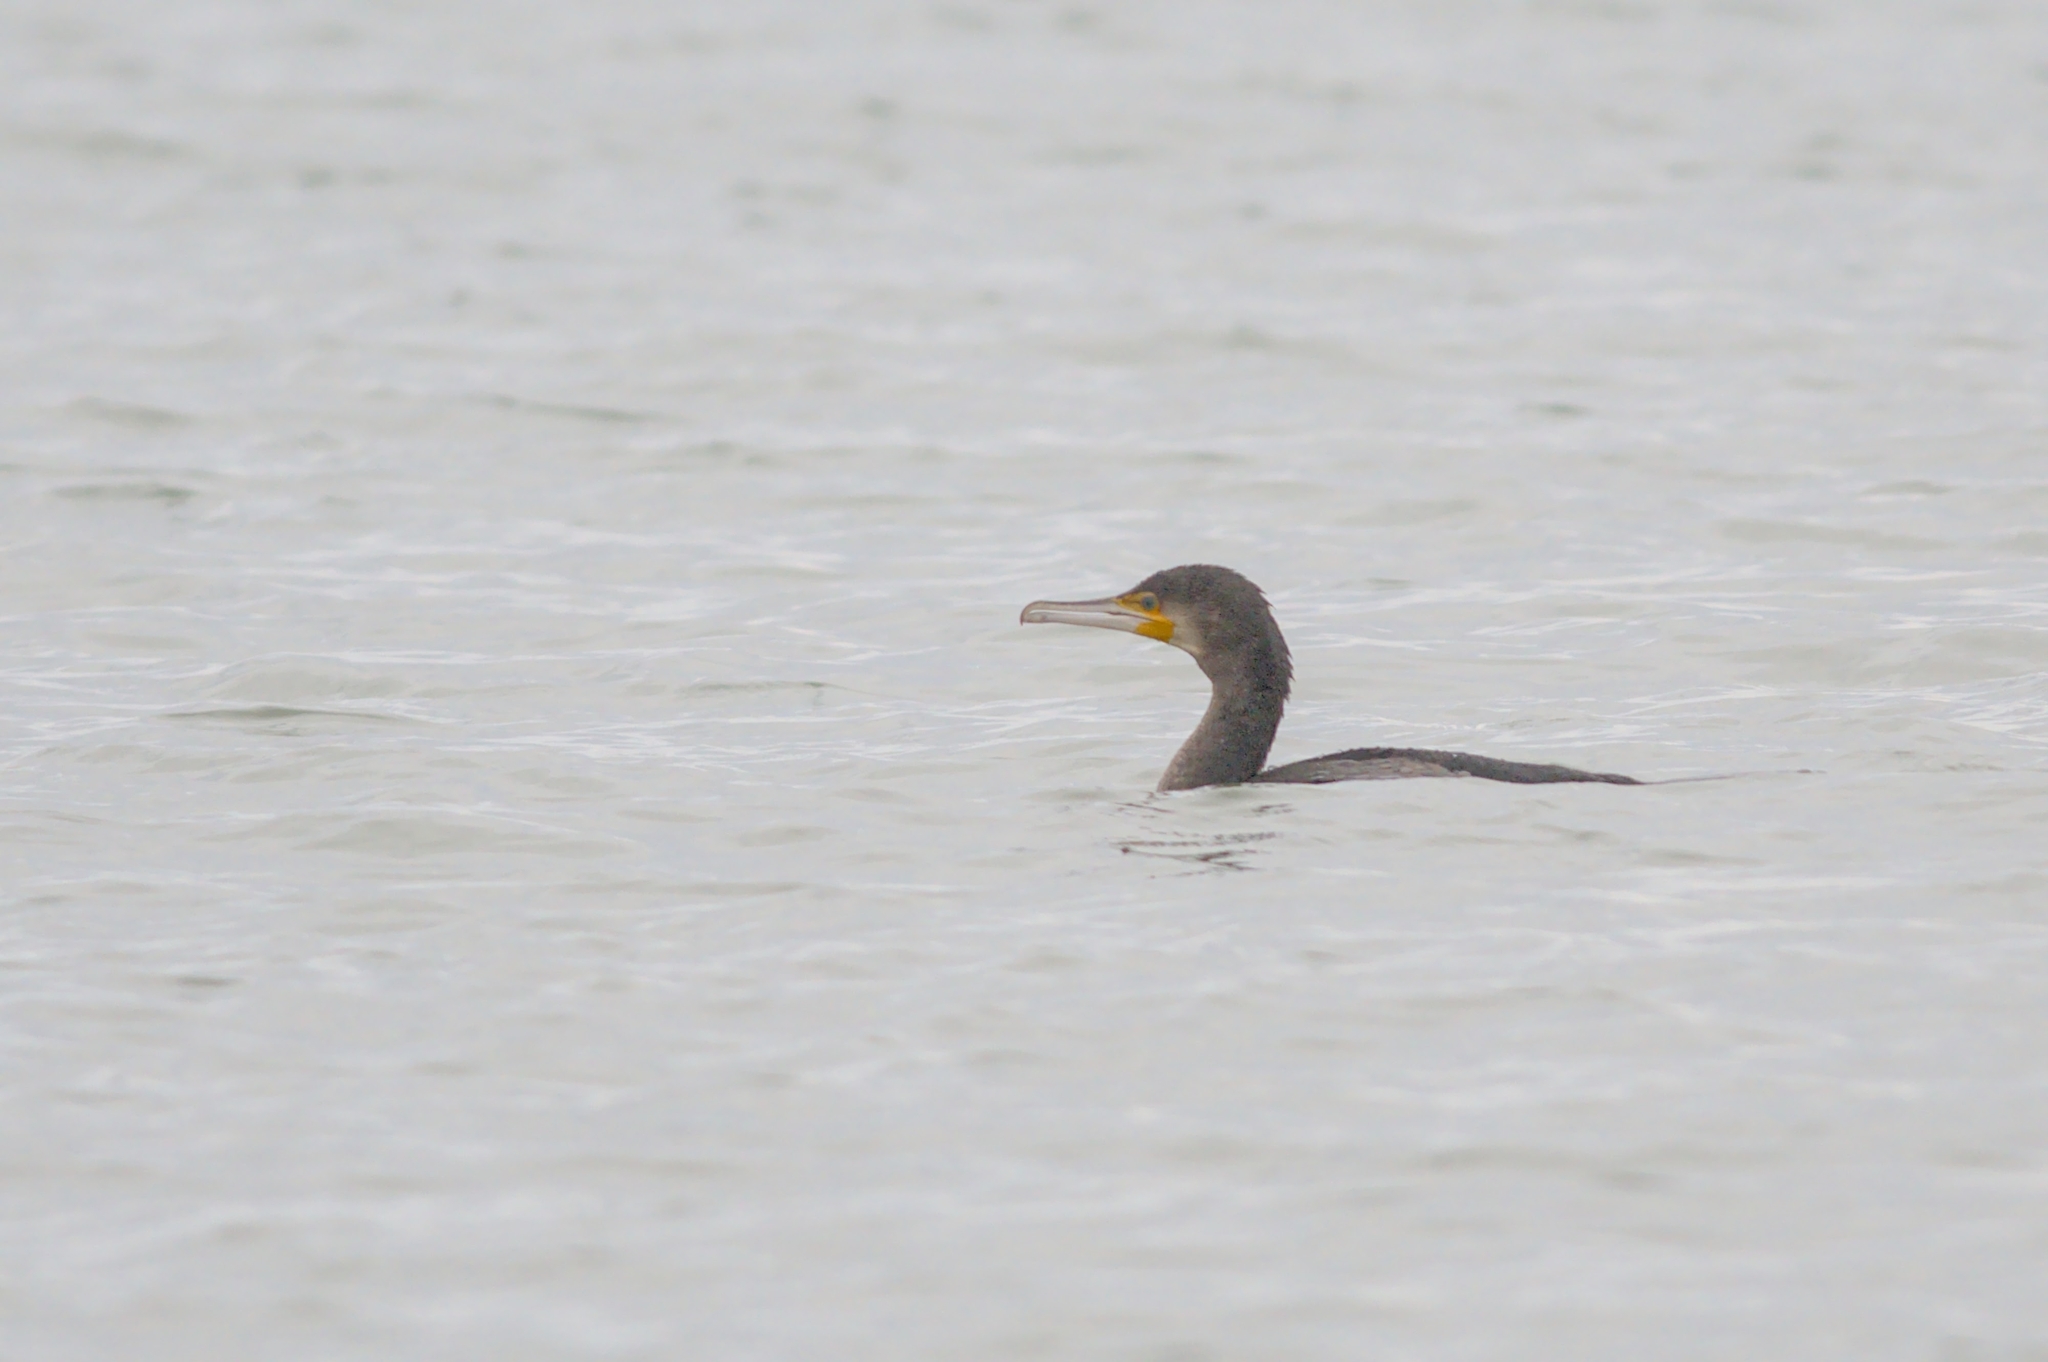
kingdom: Animalia
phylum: Chordata
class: Aves
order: Suliformes
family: Phalacrocoracidae
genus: Phalacrocorax
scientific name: Phalacrocorax carbo
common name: Great cormorant
